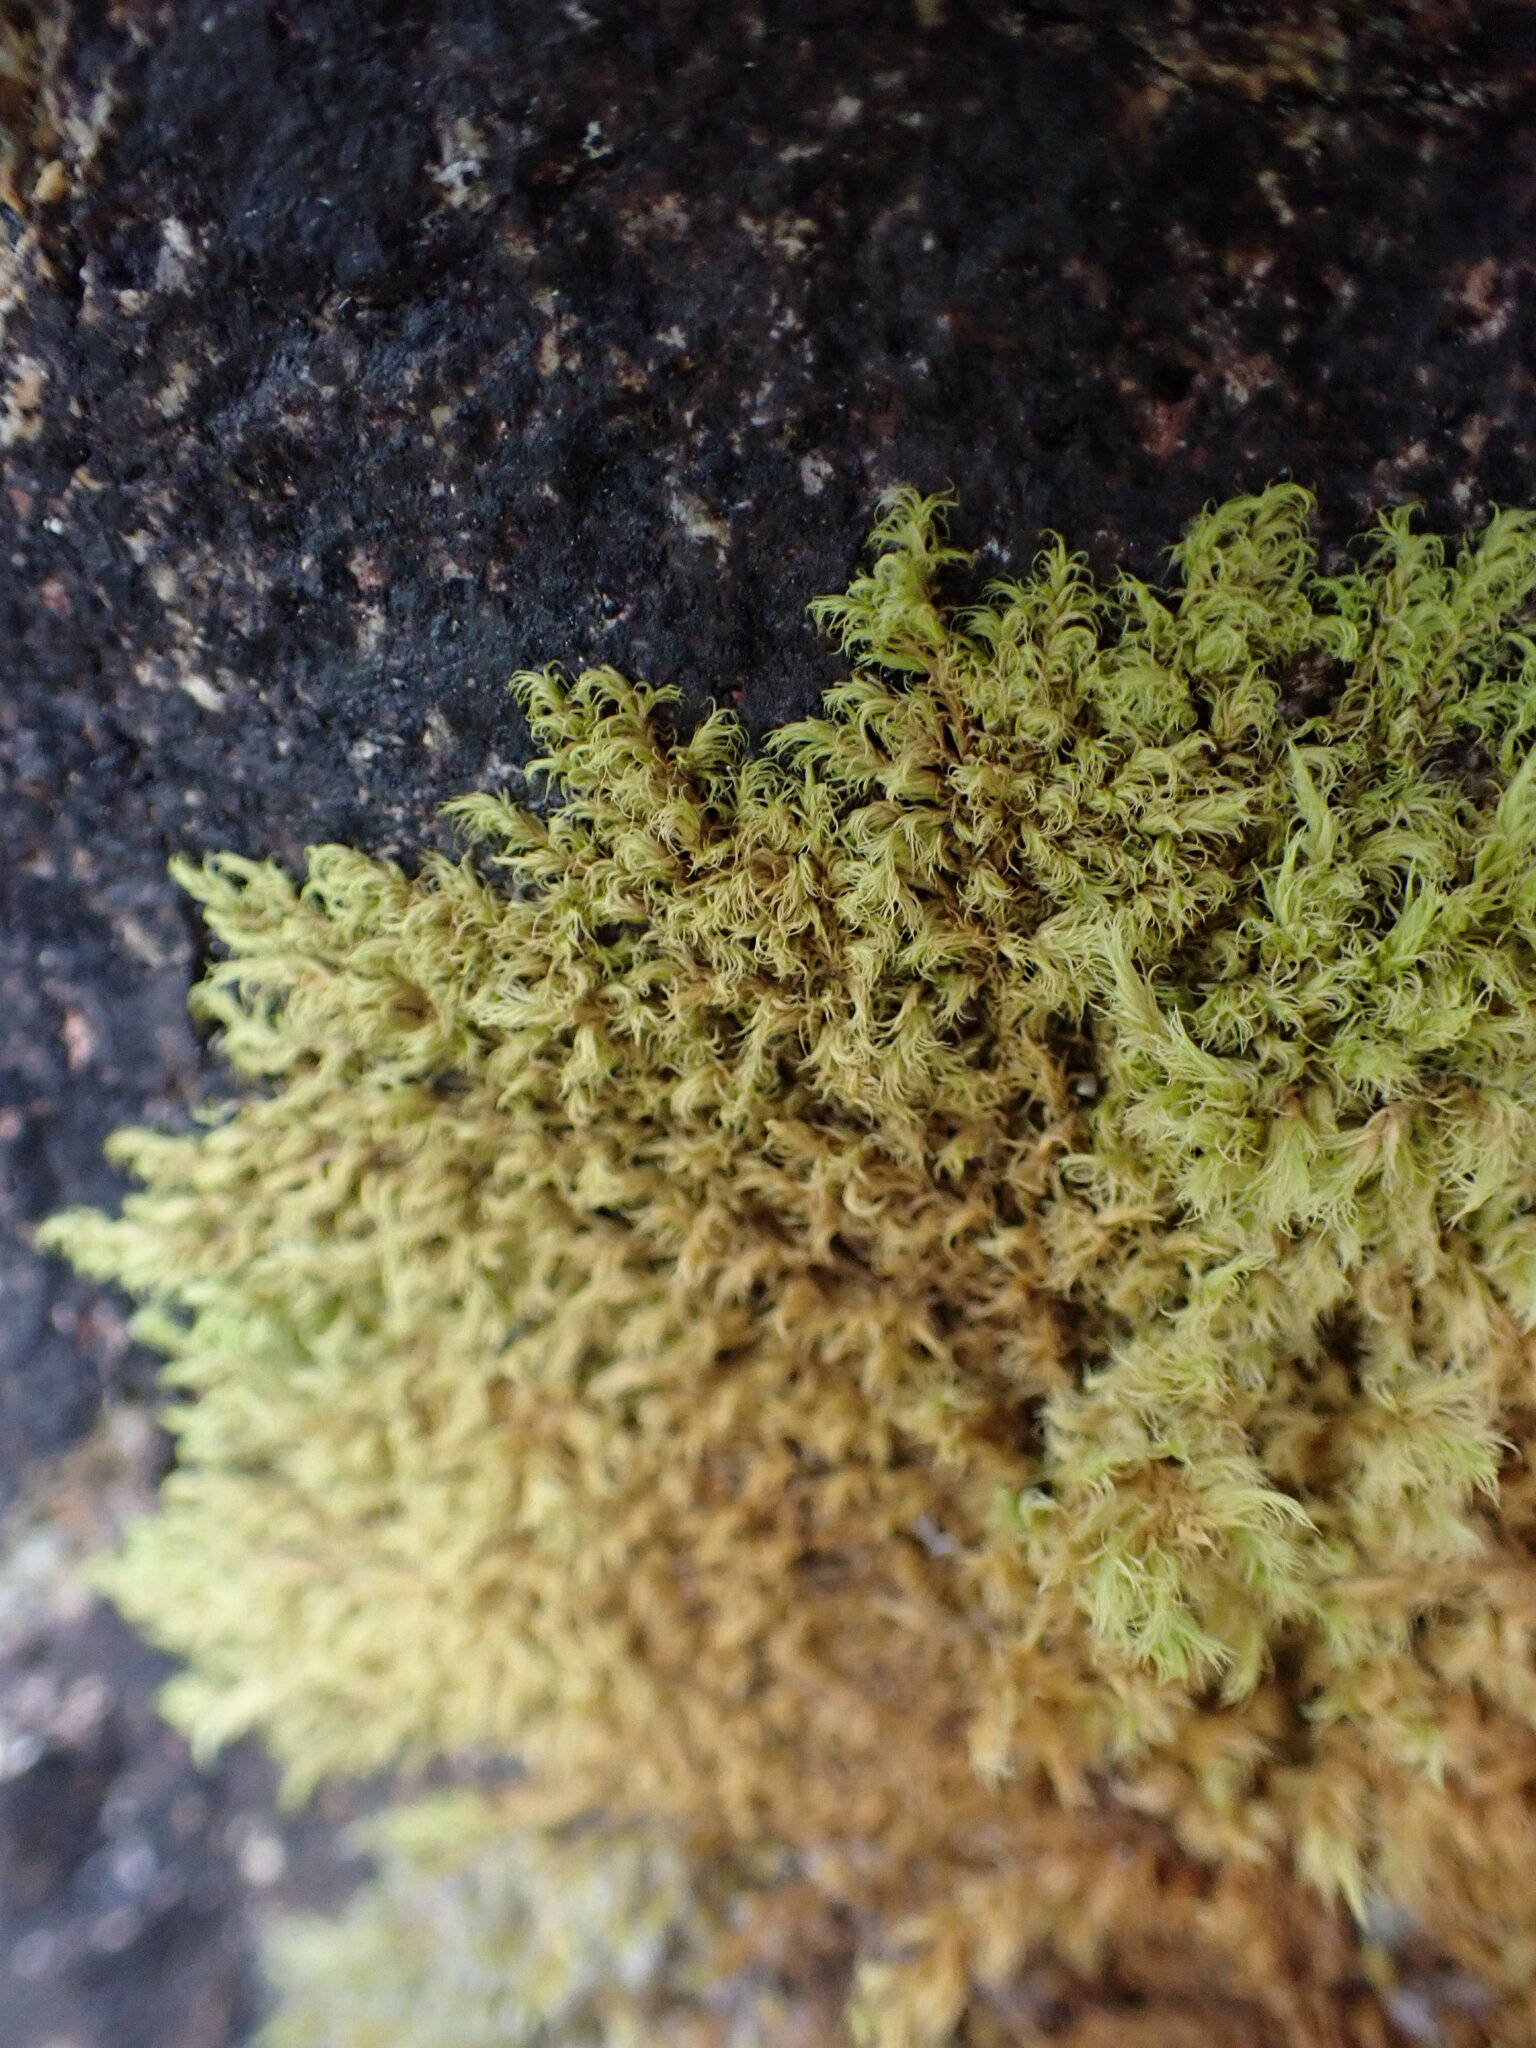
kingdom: Plantae
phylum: Bryophyta
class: Bryopsida
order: Grimmiales
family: Grimmiaceae
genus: Dilutineuron
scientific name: Dilutineuron fasciculare
